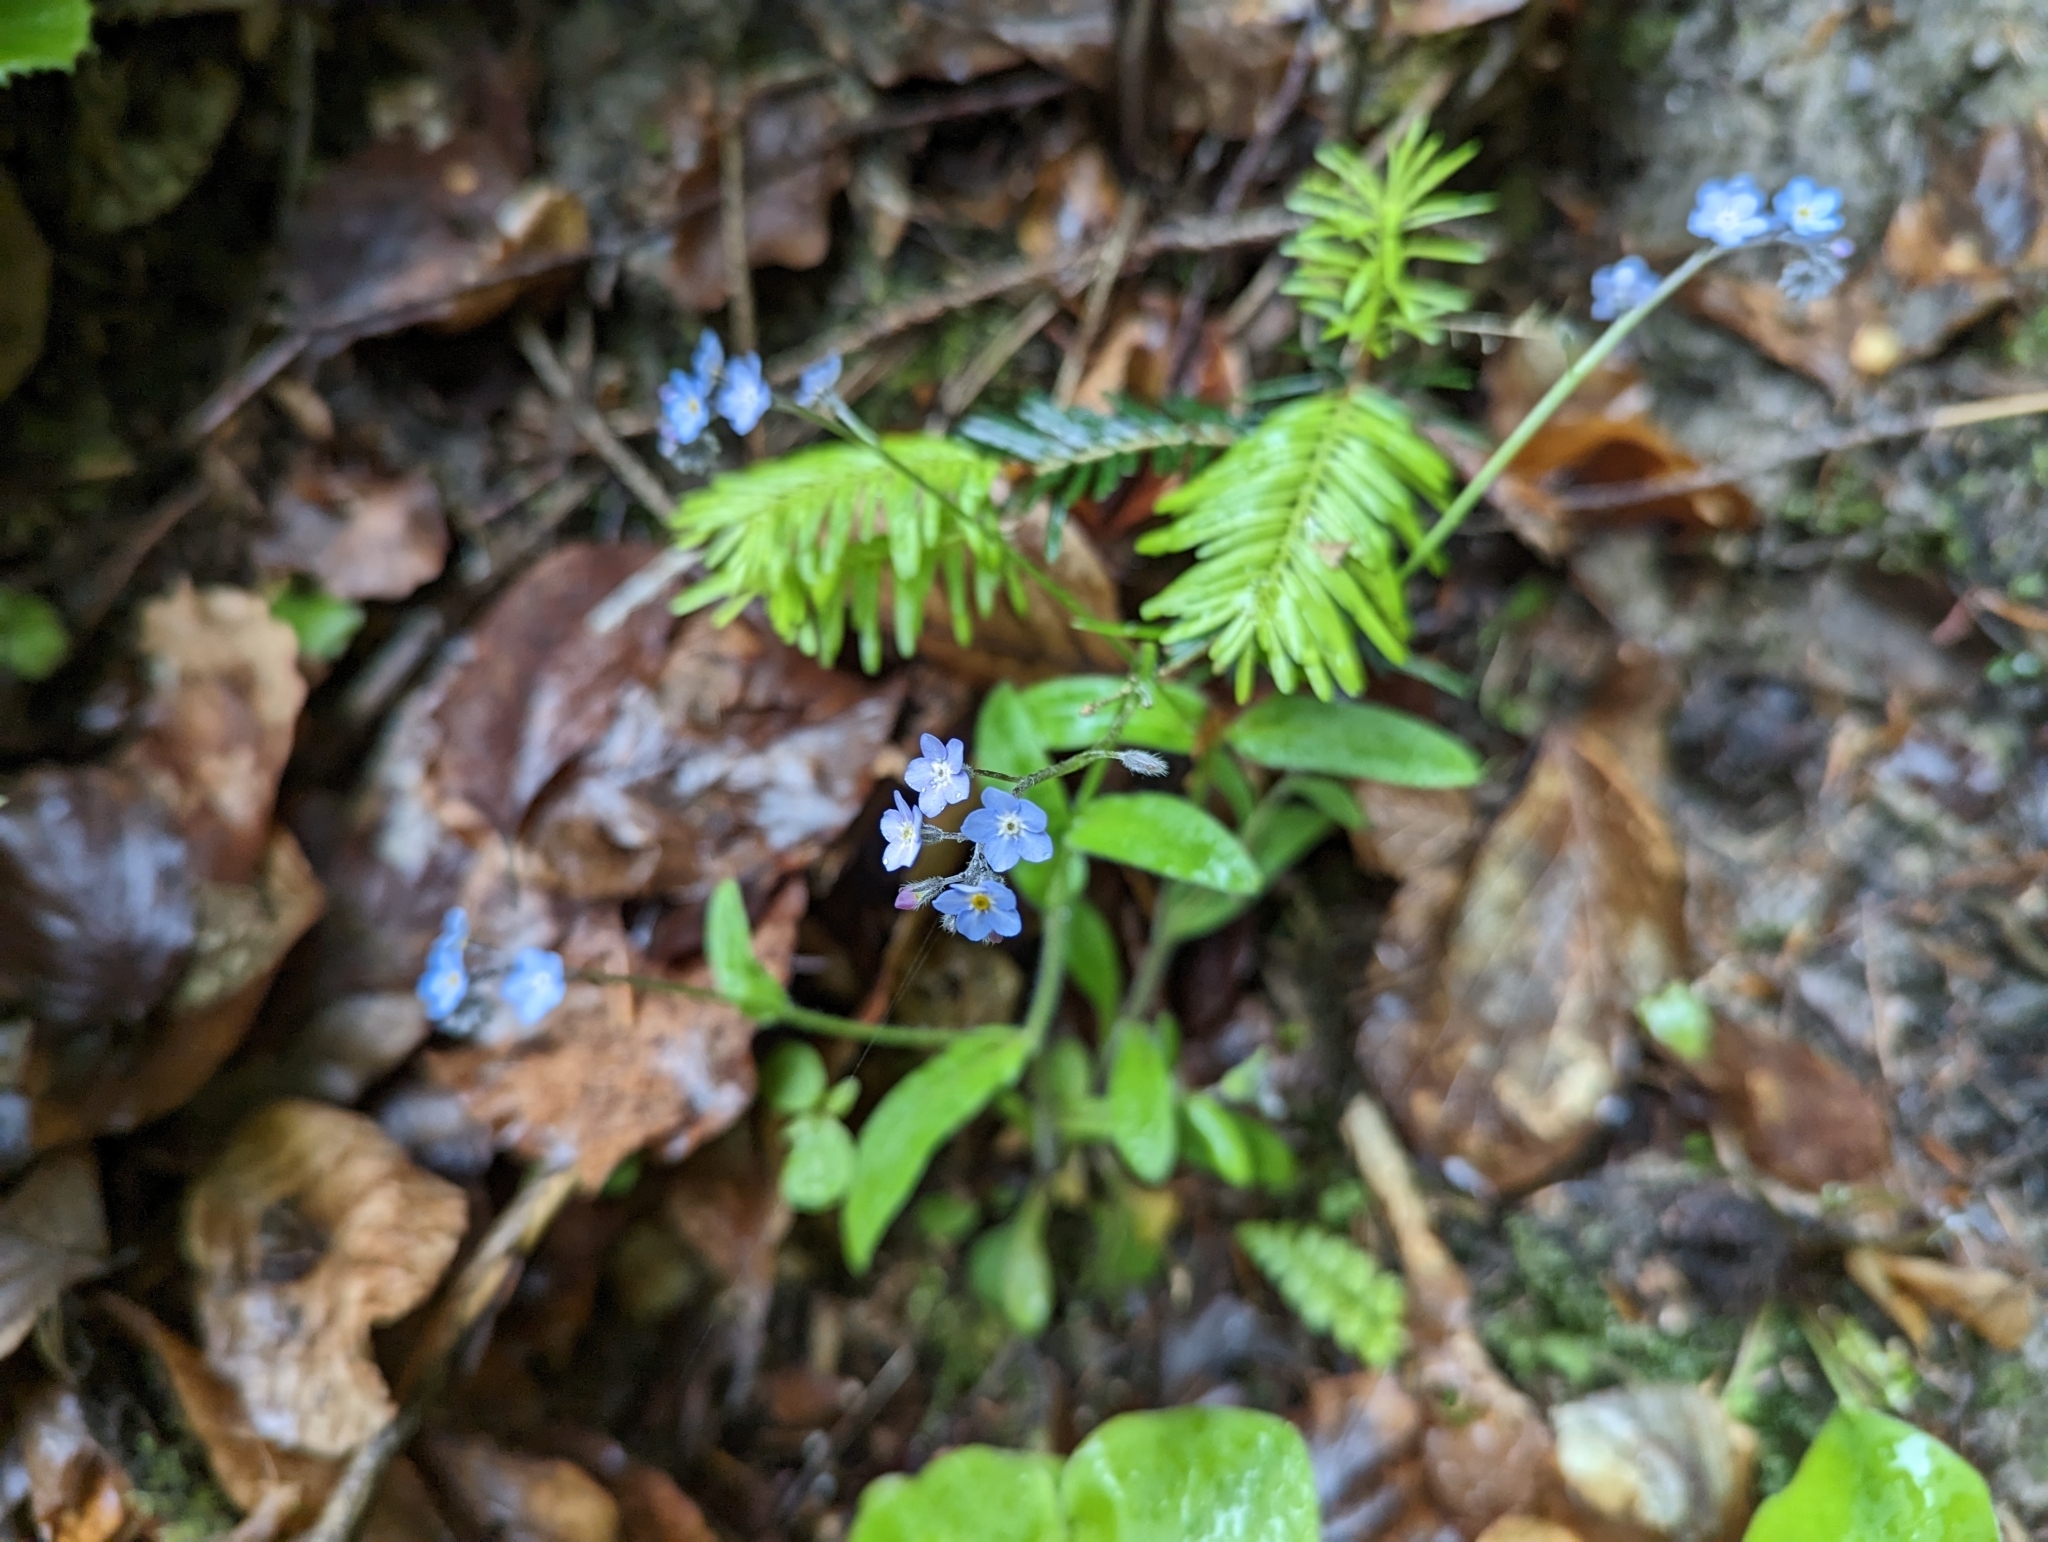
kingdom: Plantae
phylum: Tracheophyta
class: Magnoliopsida
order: Boraginales
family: Boraginaceae
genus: Myosotis
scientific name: Myosotis sylvatica
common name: Wood forget-me-not
